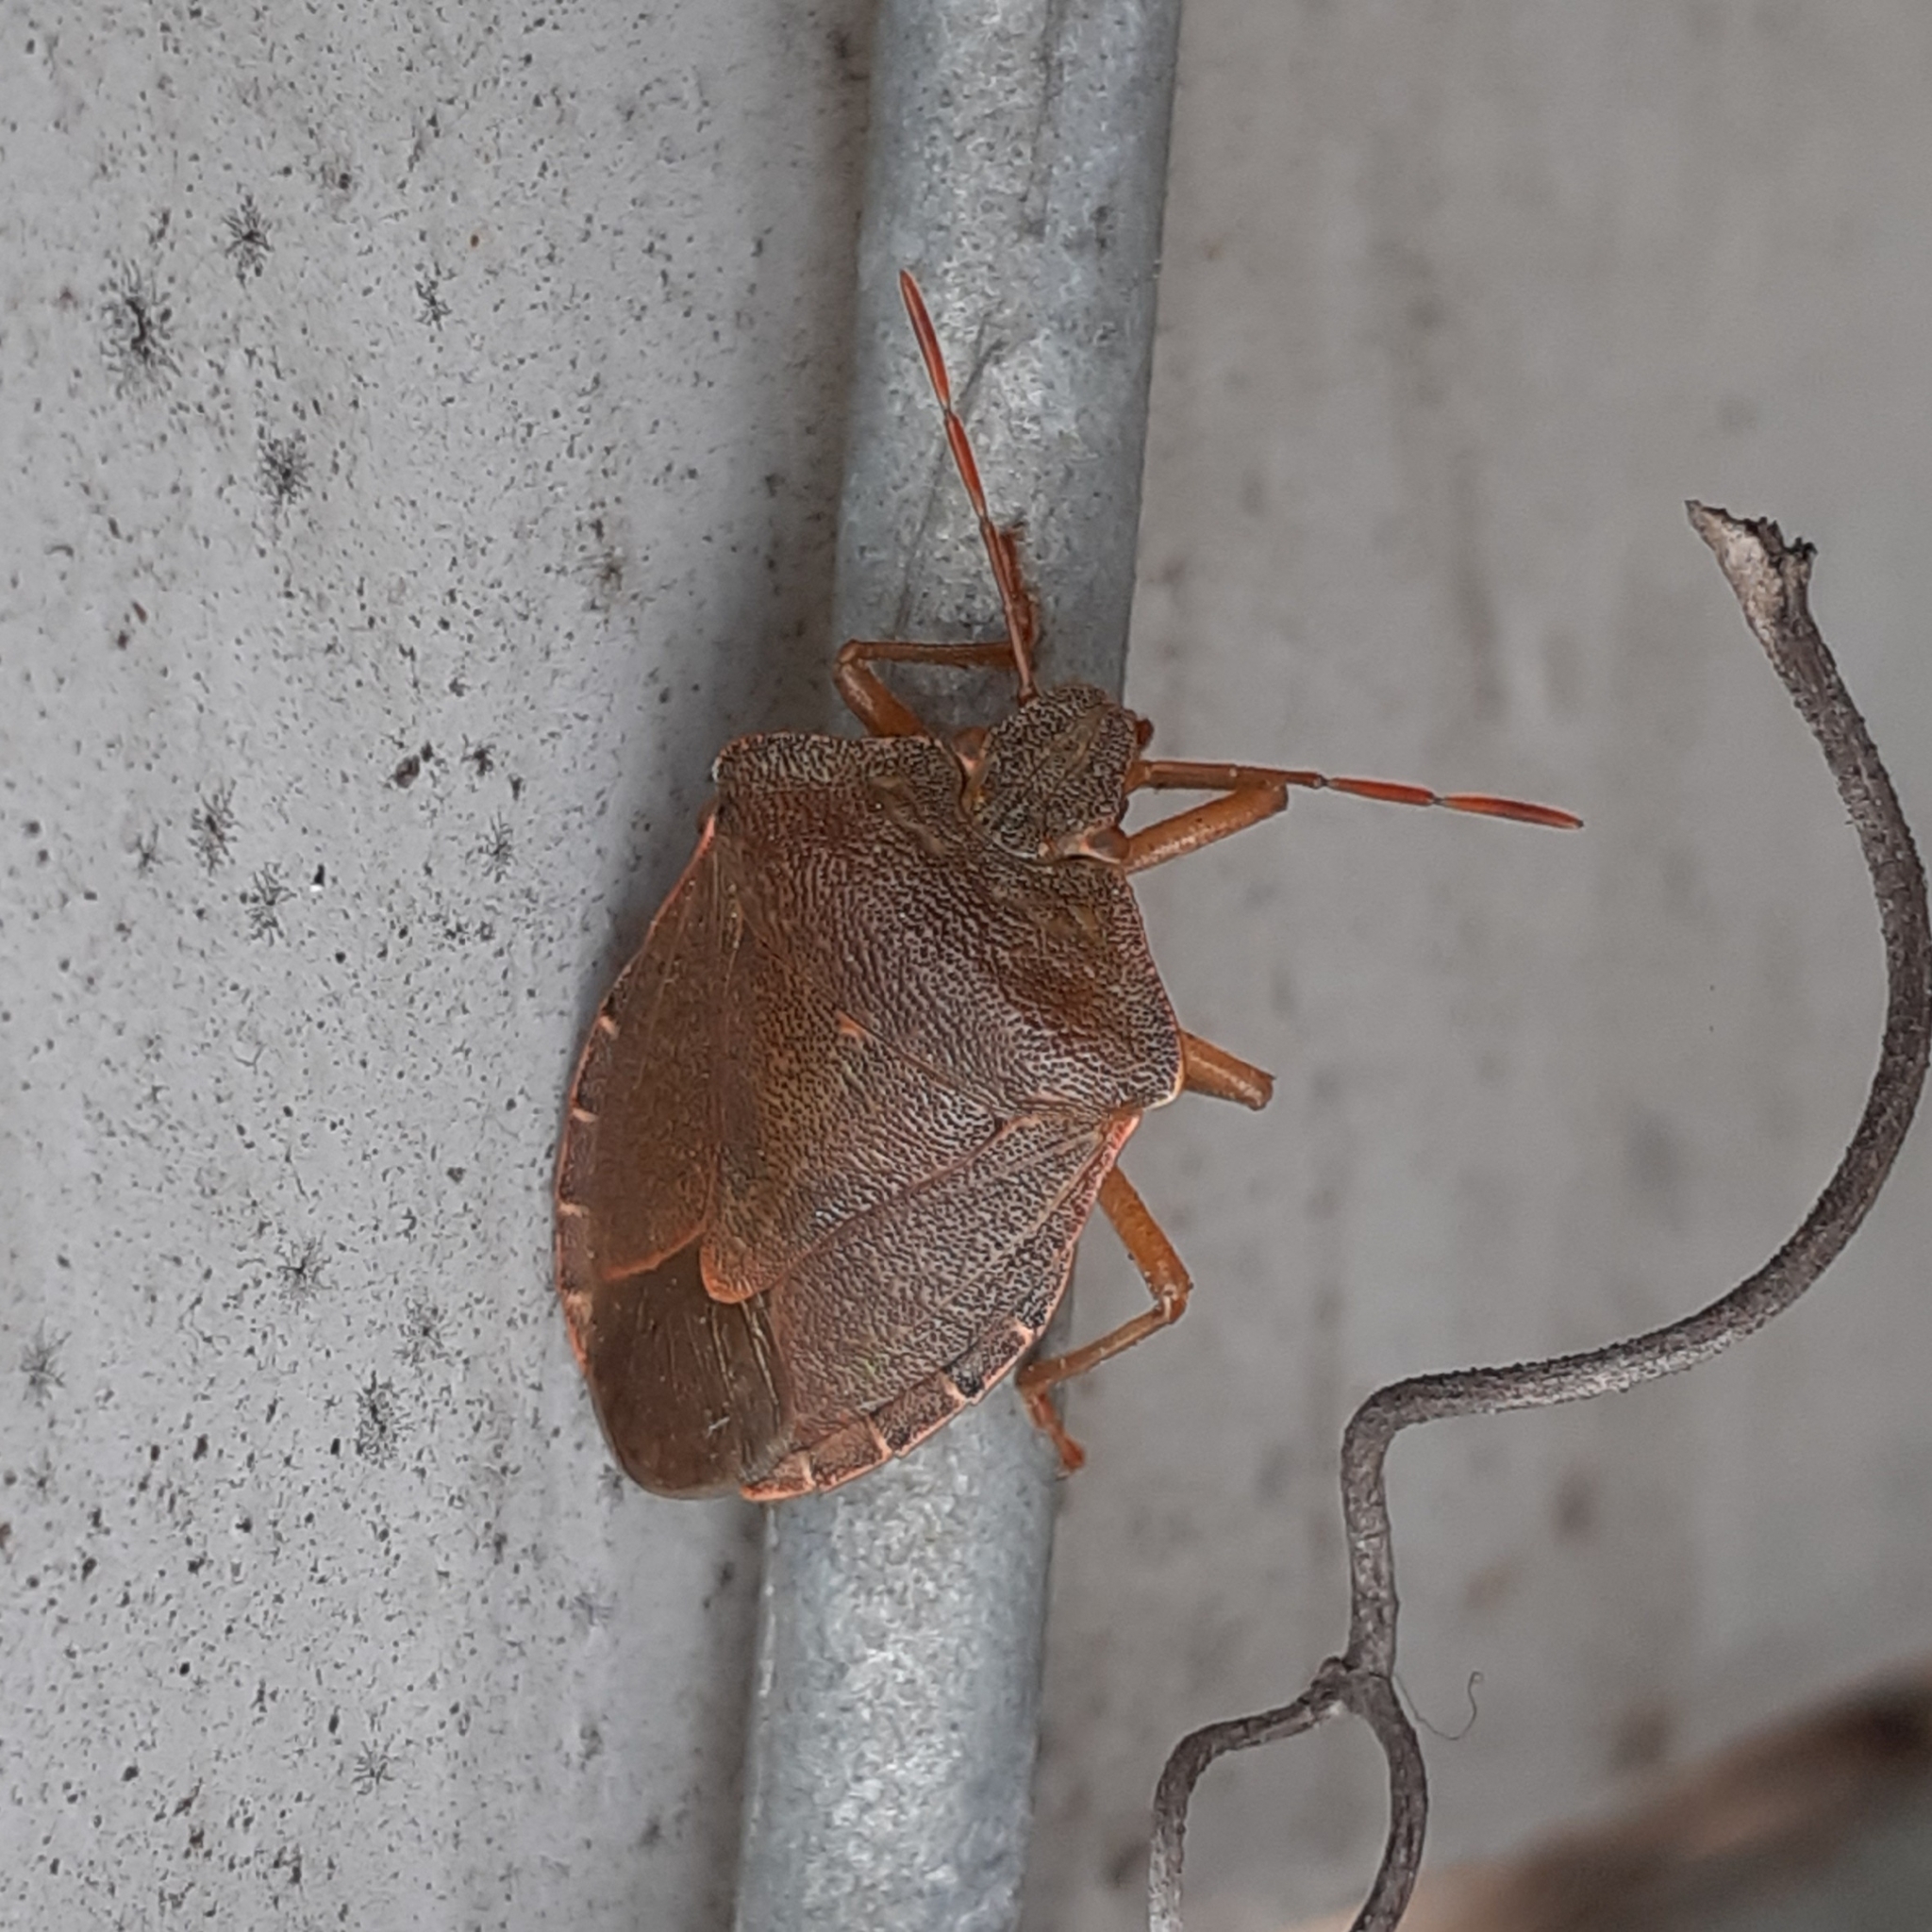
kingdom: Animalia
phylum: Arthropoda
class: Insecta
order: Hemiptera
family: Pentatomidae
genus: Palomena
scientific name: Palomena prasina
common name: Green shieldbug
